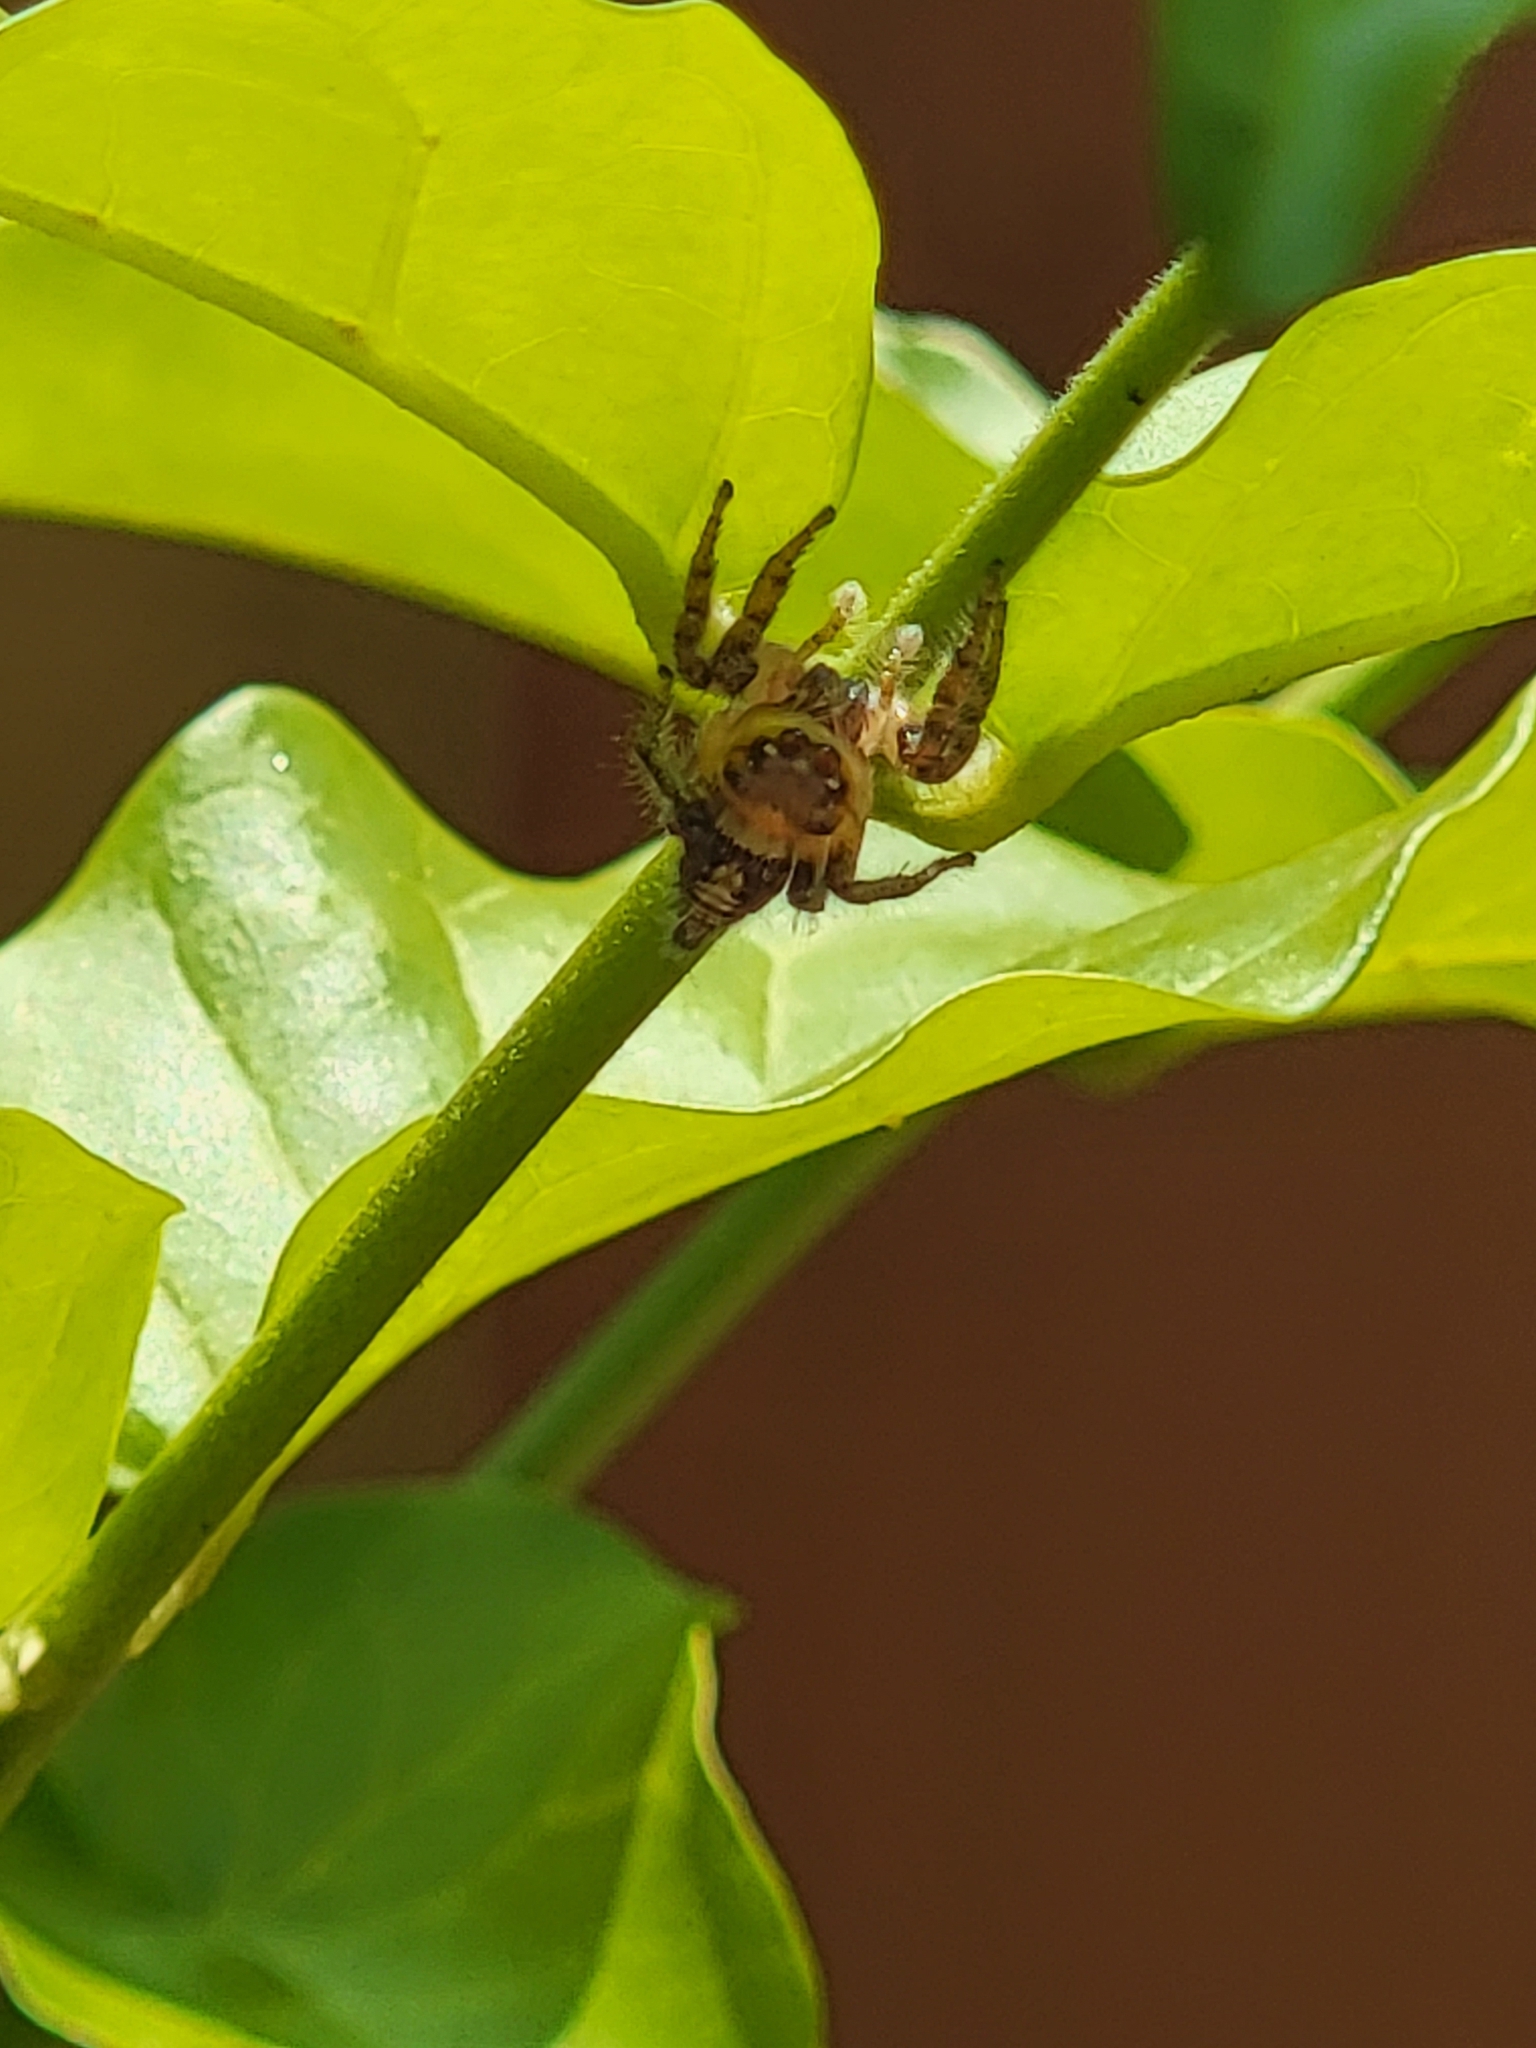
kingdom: Animalia
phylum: Arthropoda
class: Arachnida
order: Araneae
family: Salticidae
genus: Hyllus
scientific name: Hyllus semicupreus
